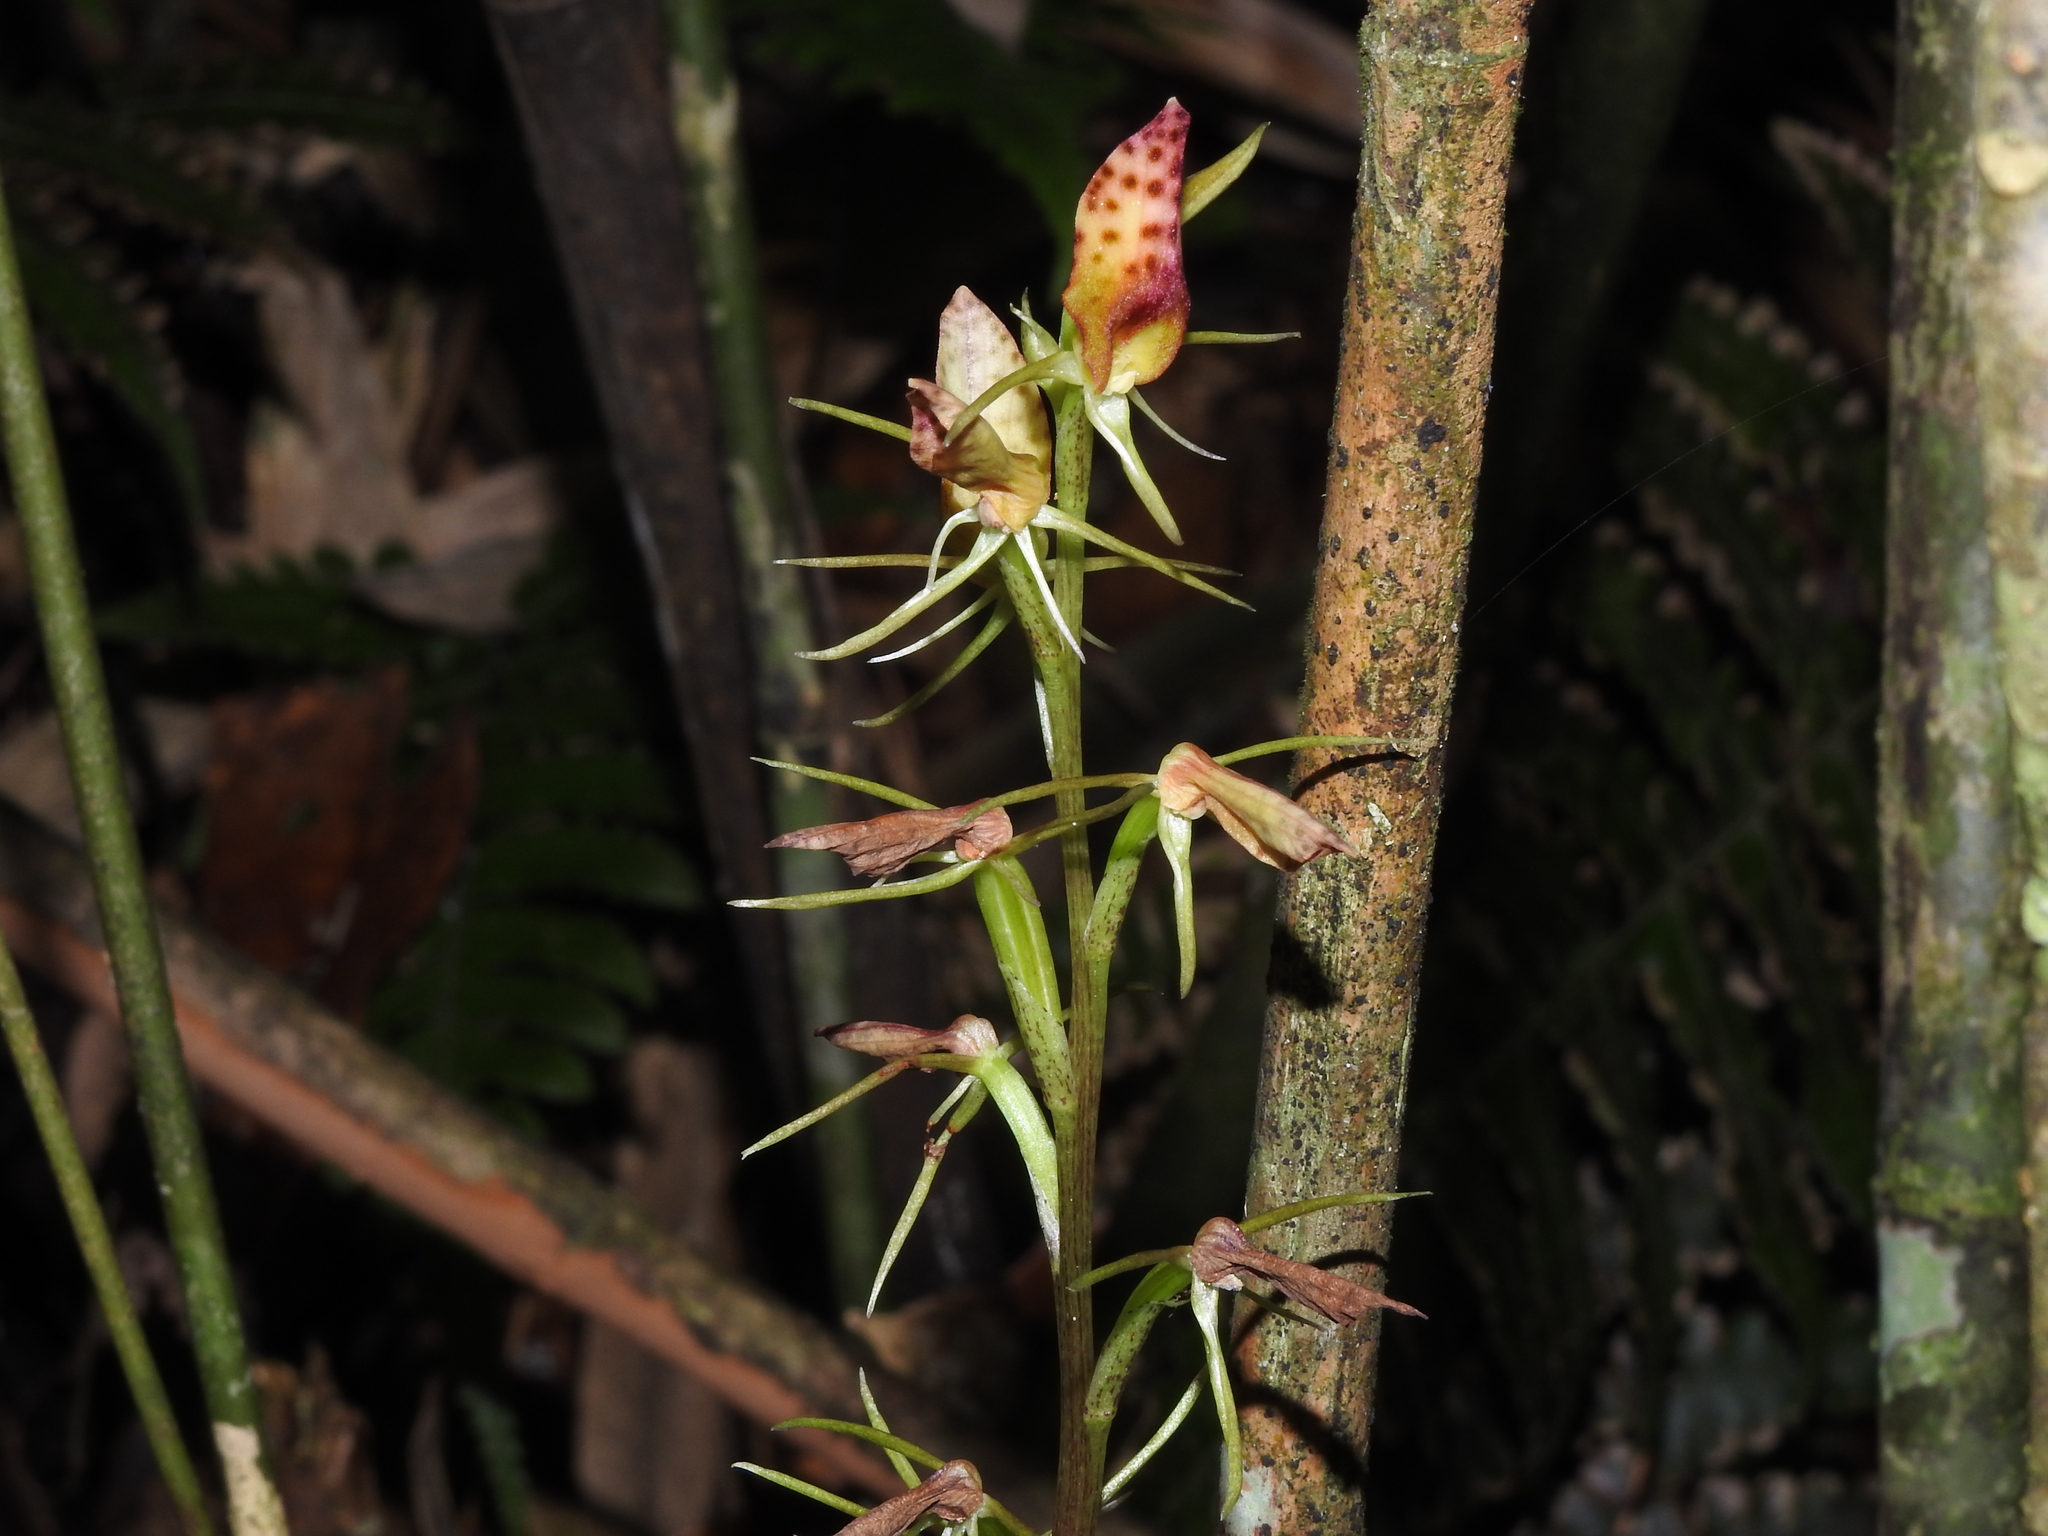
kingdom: Plantae
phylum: Tracheophyta
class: Liliopsida
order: Asparagales
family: Orchidaceae
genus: Cryptostylis
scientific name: Cryptostylis taiwaniana
